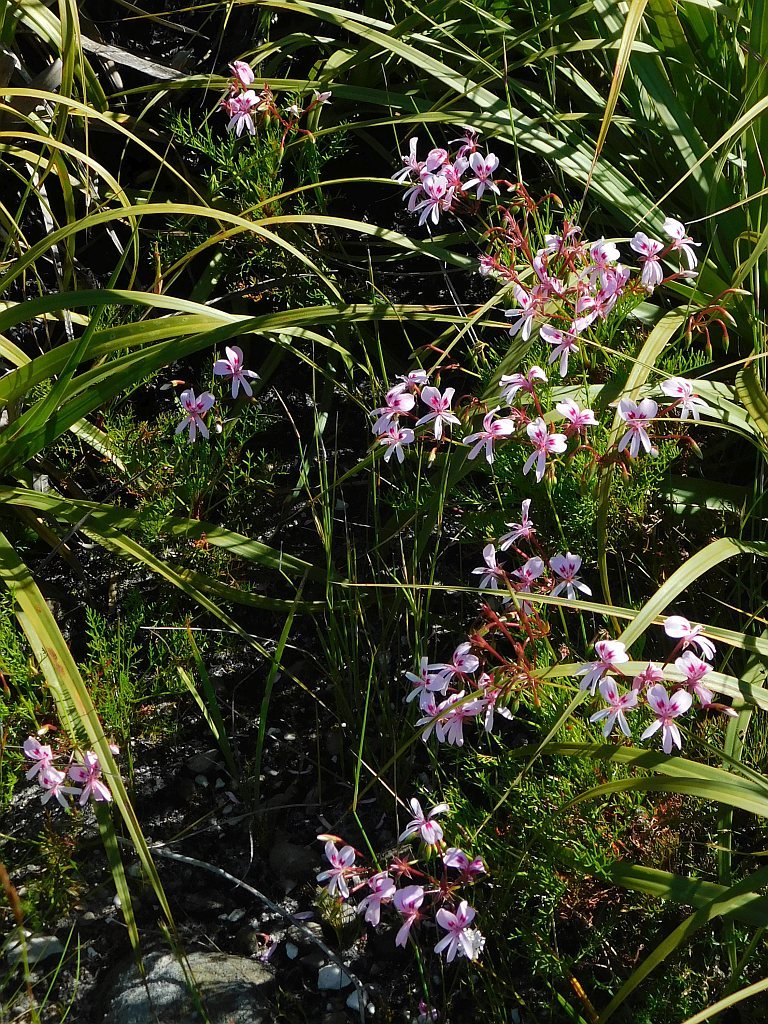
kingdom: Plantae
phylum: Tracheophyta
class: Magnoliopsida
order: Geraniales
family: Geraniaceae
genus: Pelargonium
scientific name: Pelargonium artemisiifolium
